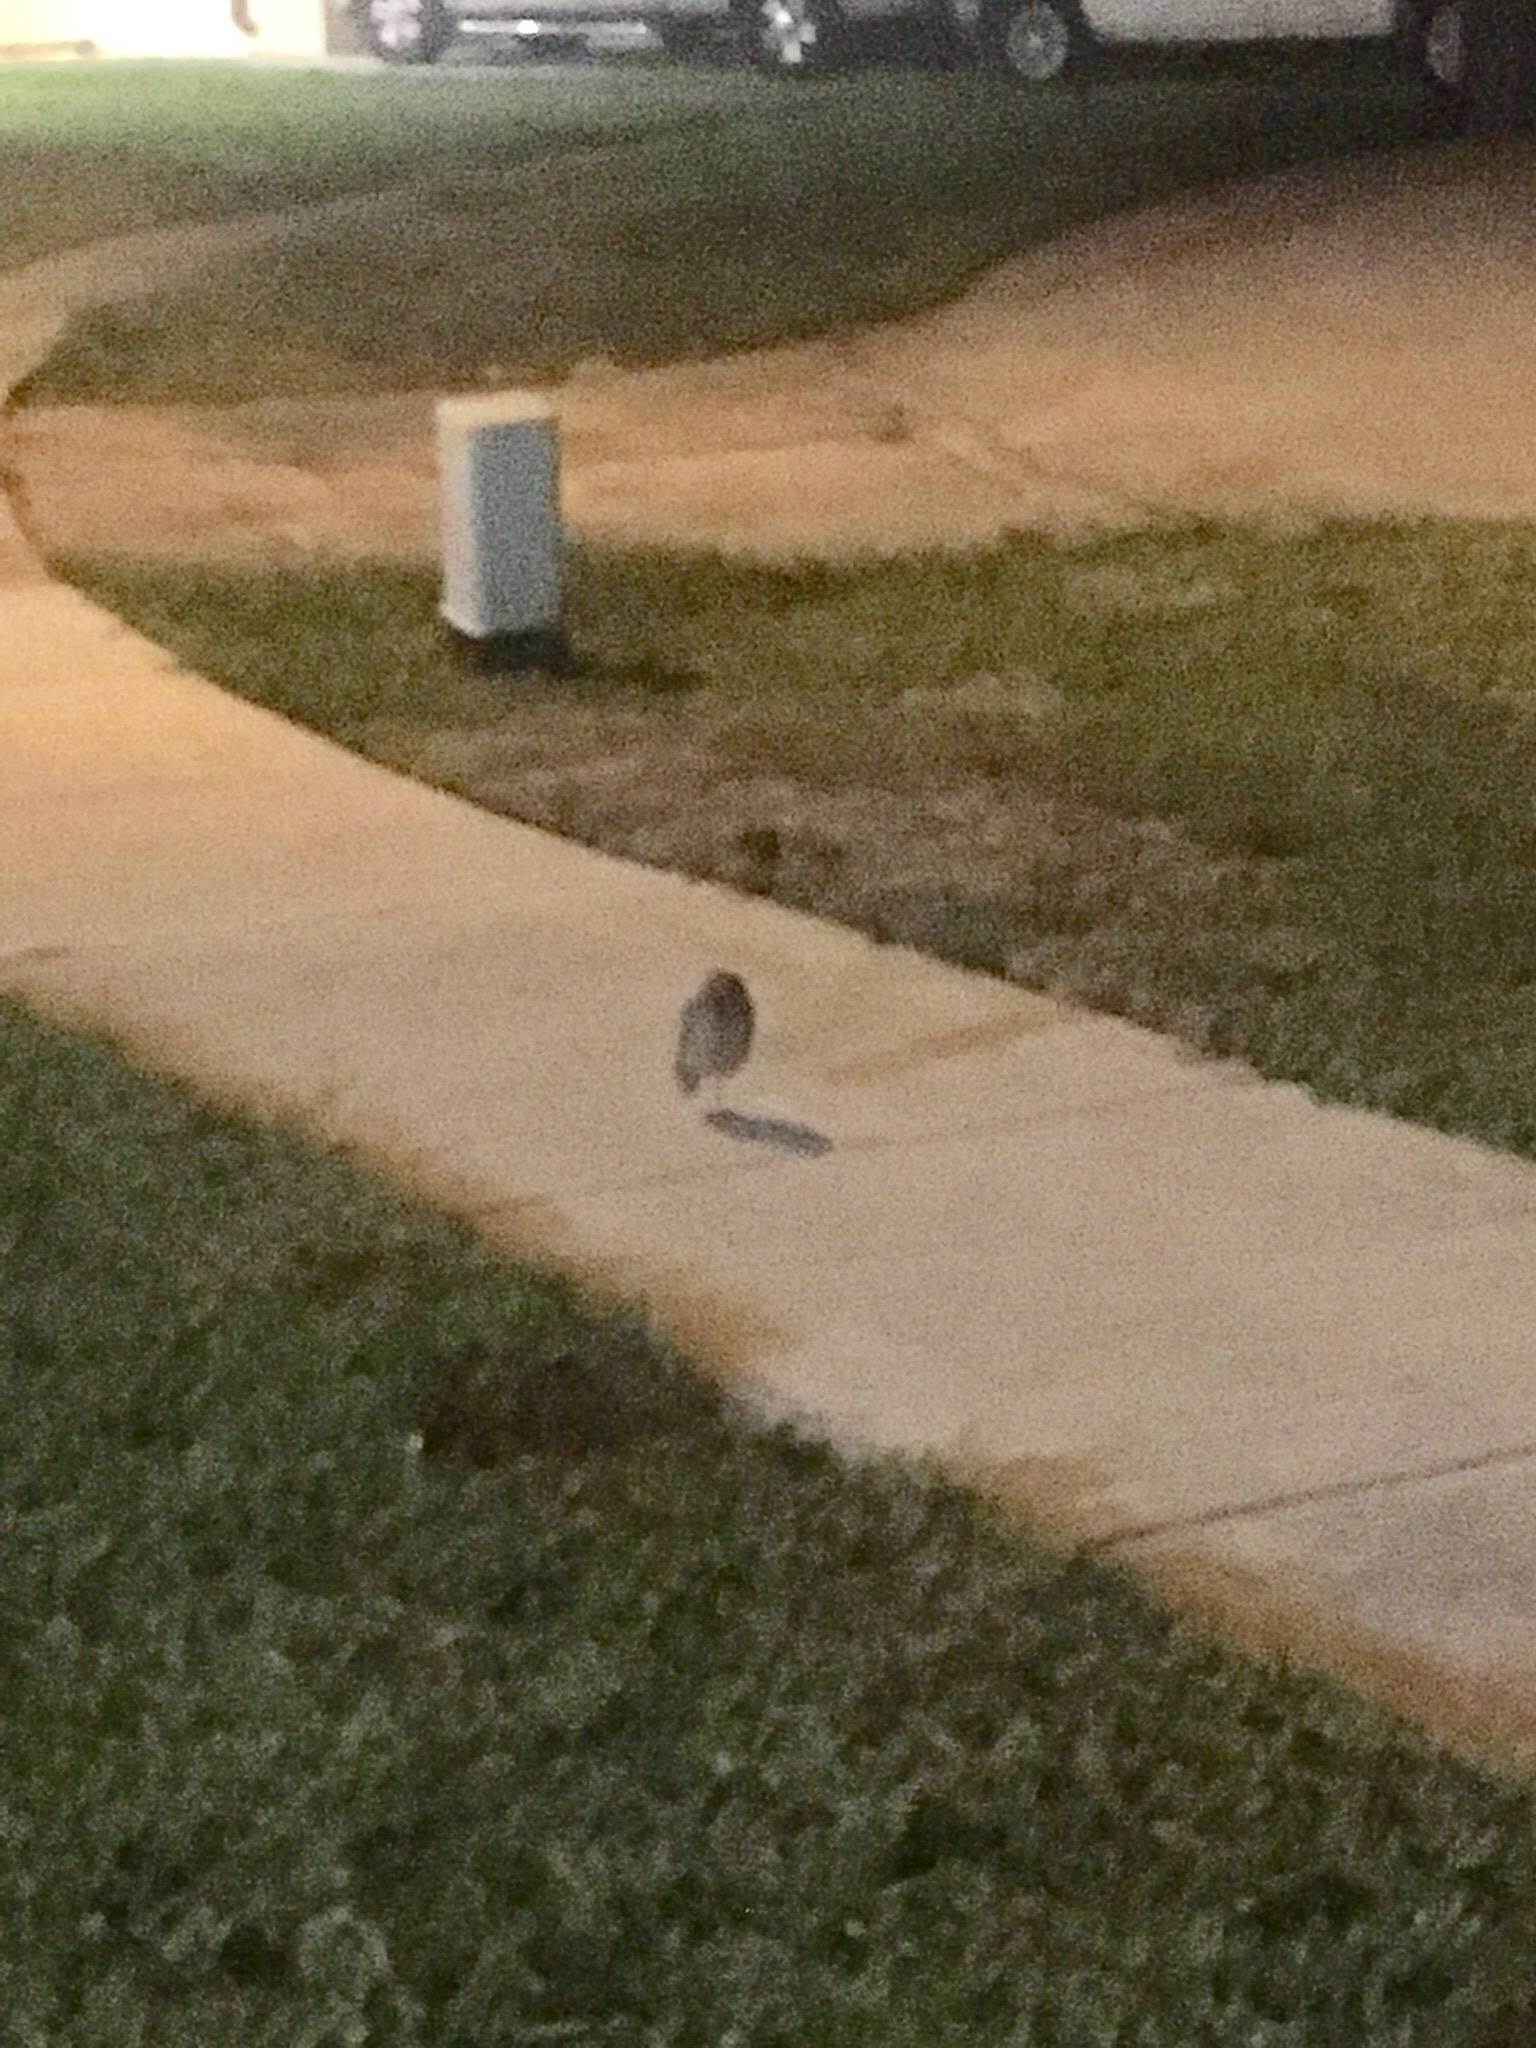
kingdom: Animalia
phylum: Chordata
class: Aves
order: Strigiformes
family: Strigidae
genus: Athene
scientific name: Athene cunicularia
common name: Burrowing owl
